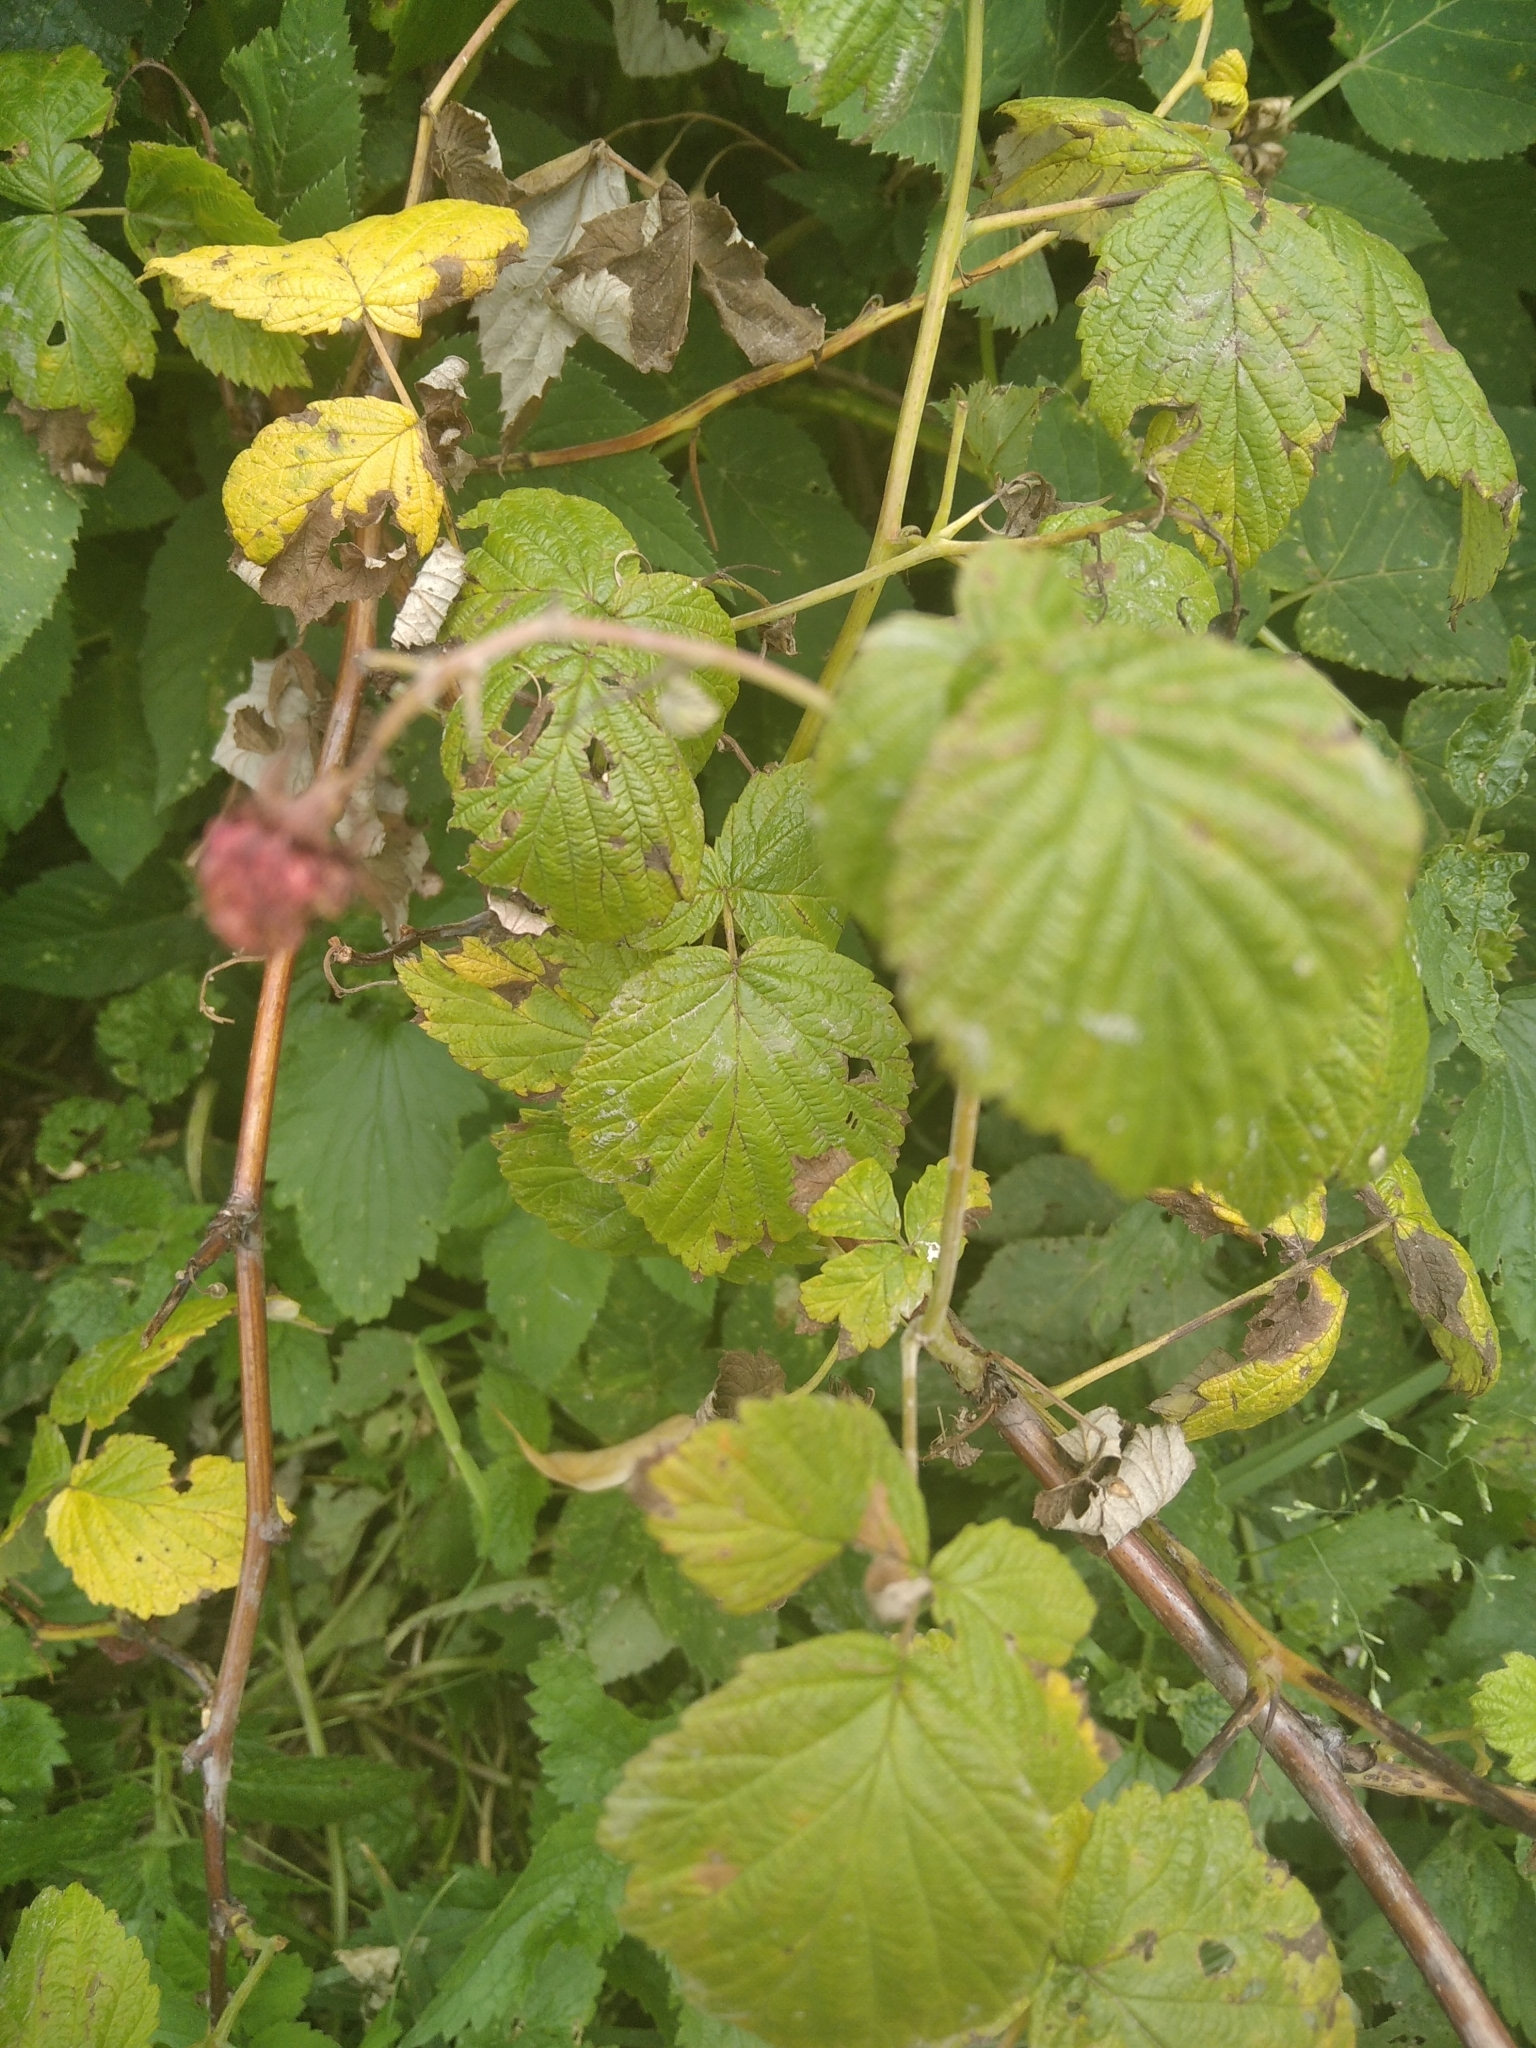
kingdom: Plantae
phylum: Tracheophyta
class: Magnoliopsida
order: Rosales
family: Rosaceae
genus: Rubus
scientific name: Rubus idaeus
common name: Raspberry
